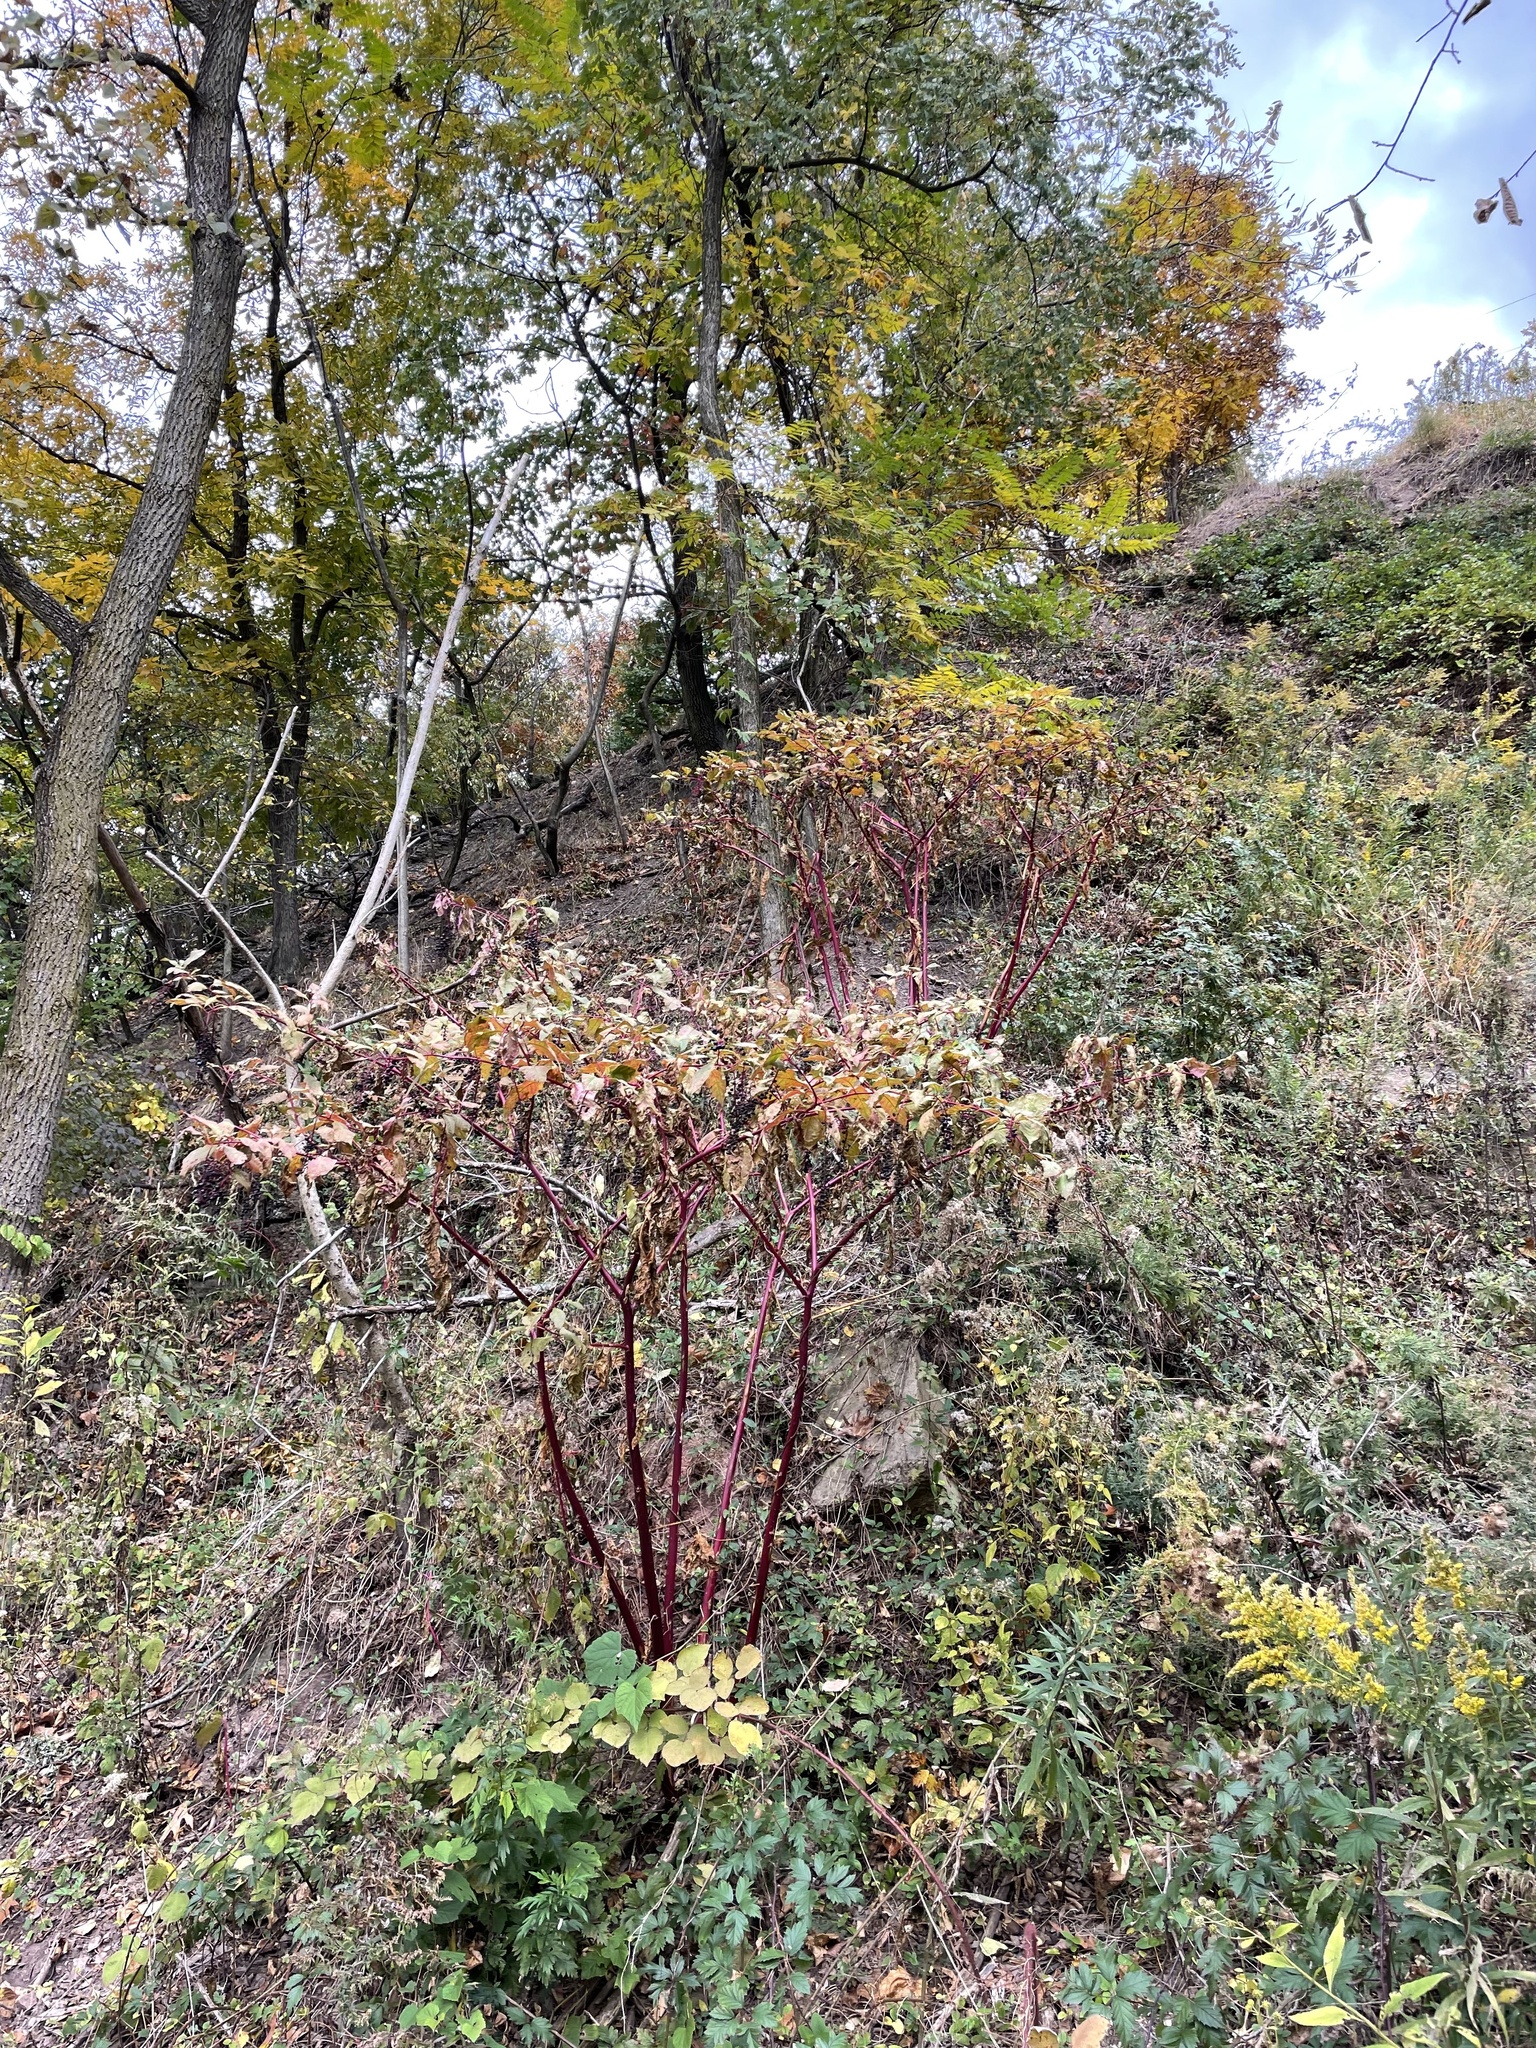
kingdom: Plantae
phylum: Tracheophyta
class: Magnoliopsida
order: Caryophyllales
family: Phytolaccaceae
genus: Phytolacca
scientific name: Phytolacca americana
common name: American pokeweed
